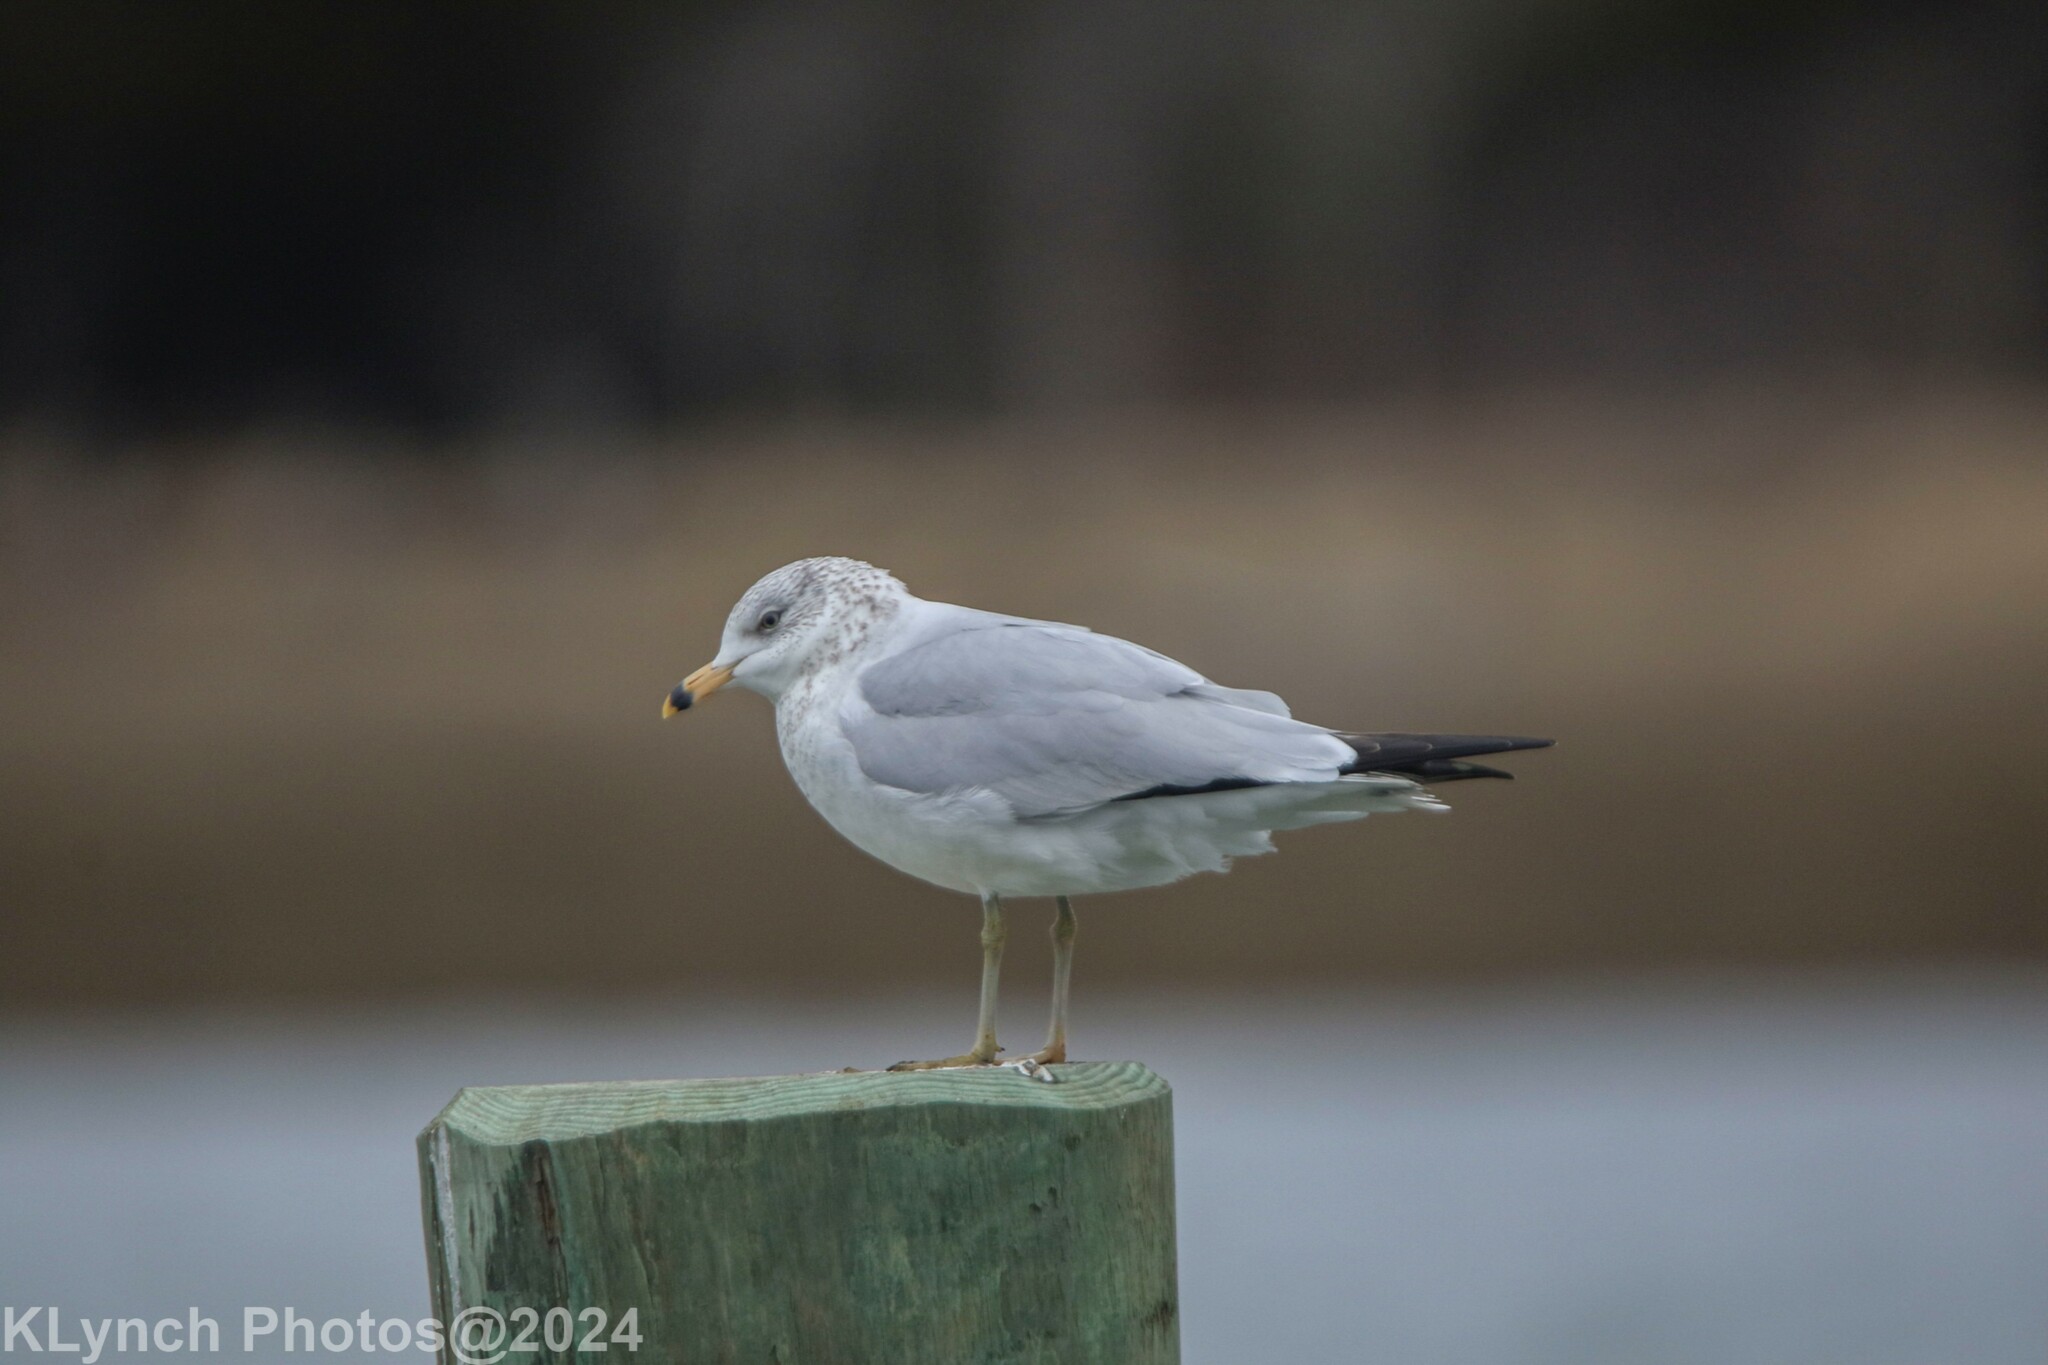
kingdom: Animalia
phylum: Chordata
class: Aves
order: Charadriiformes
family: Laridae
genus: Larus
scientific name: Larus delawarensis
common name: Ring-billed gull
